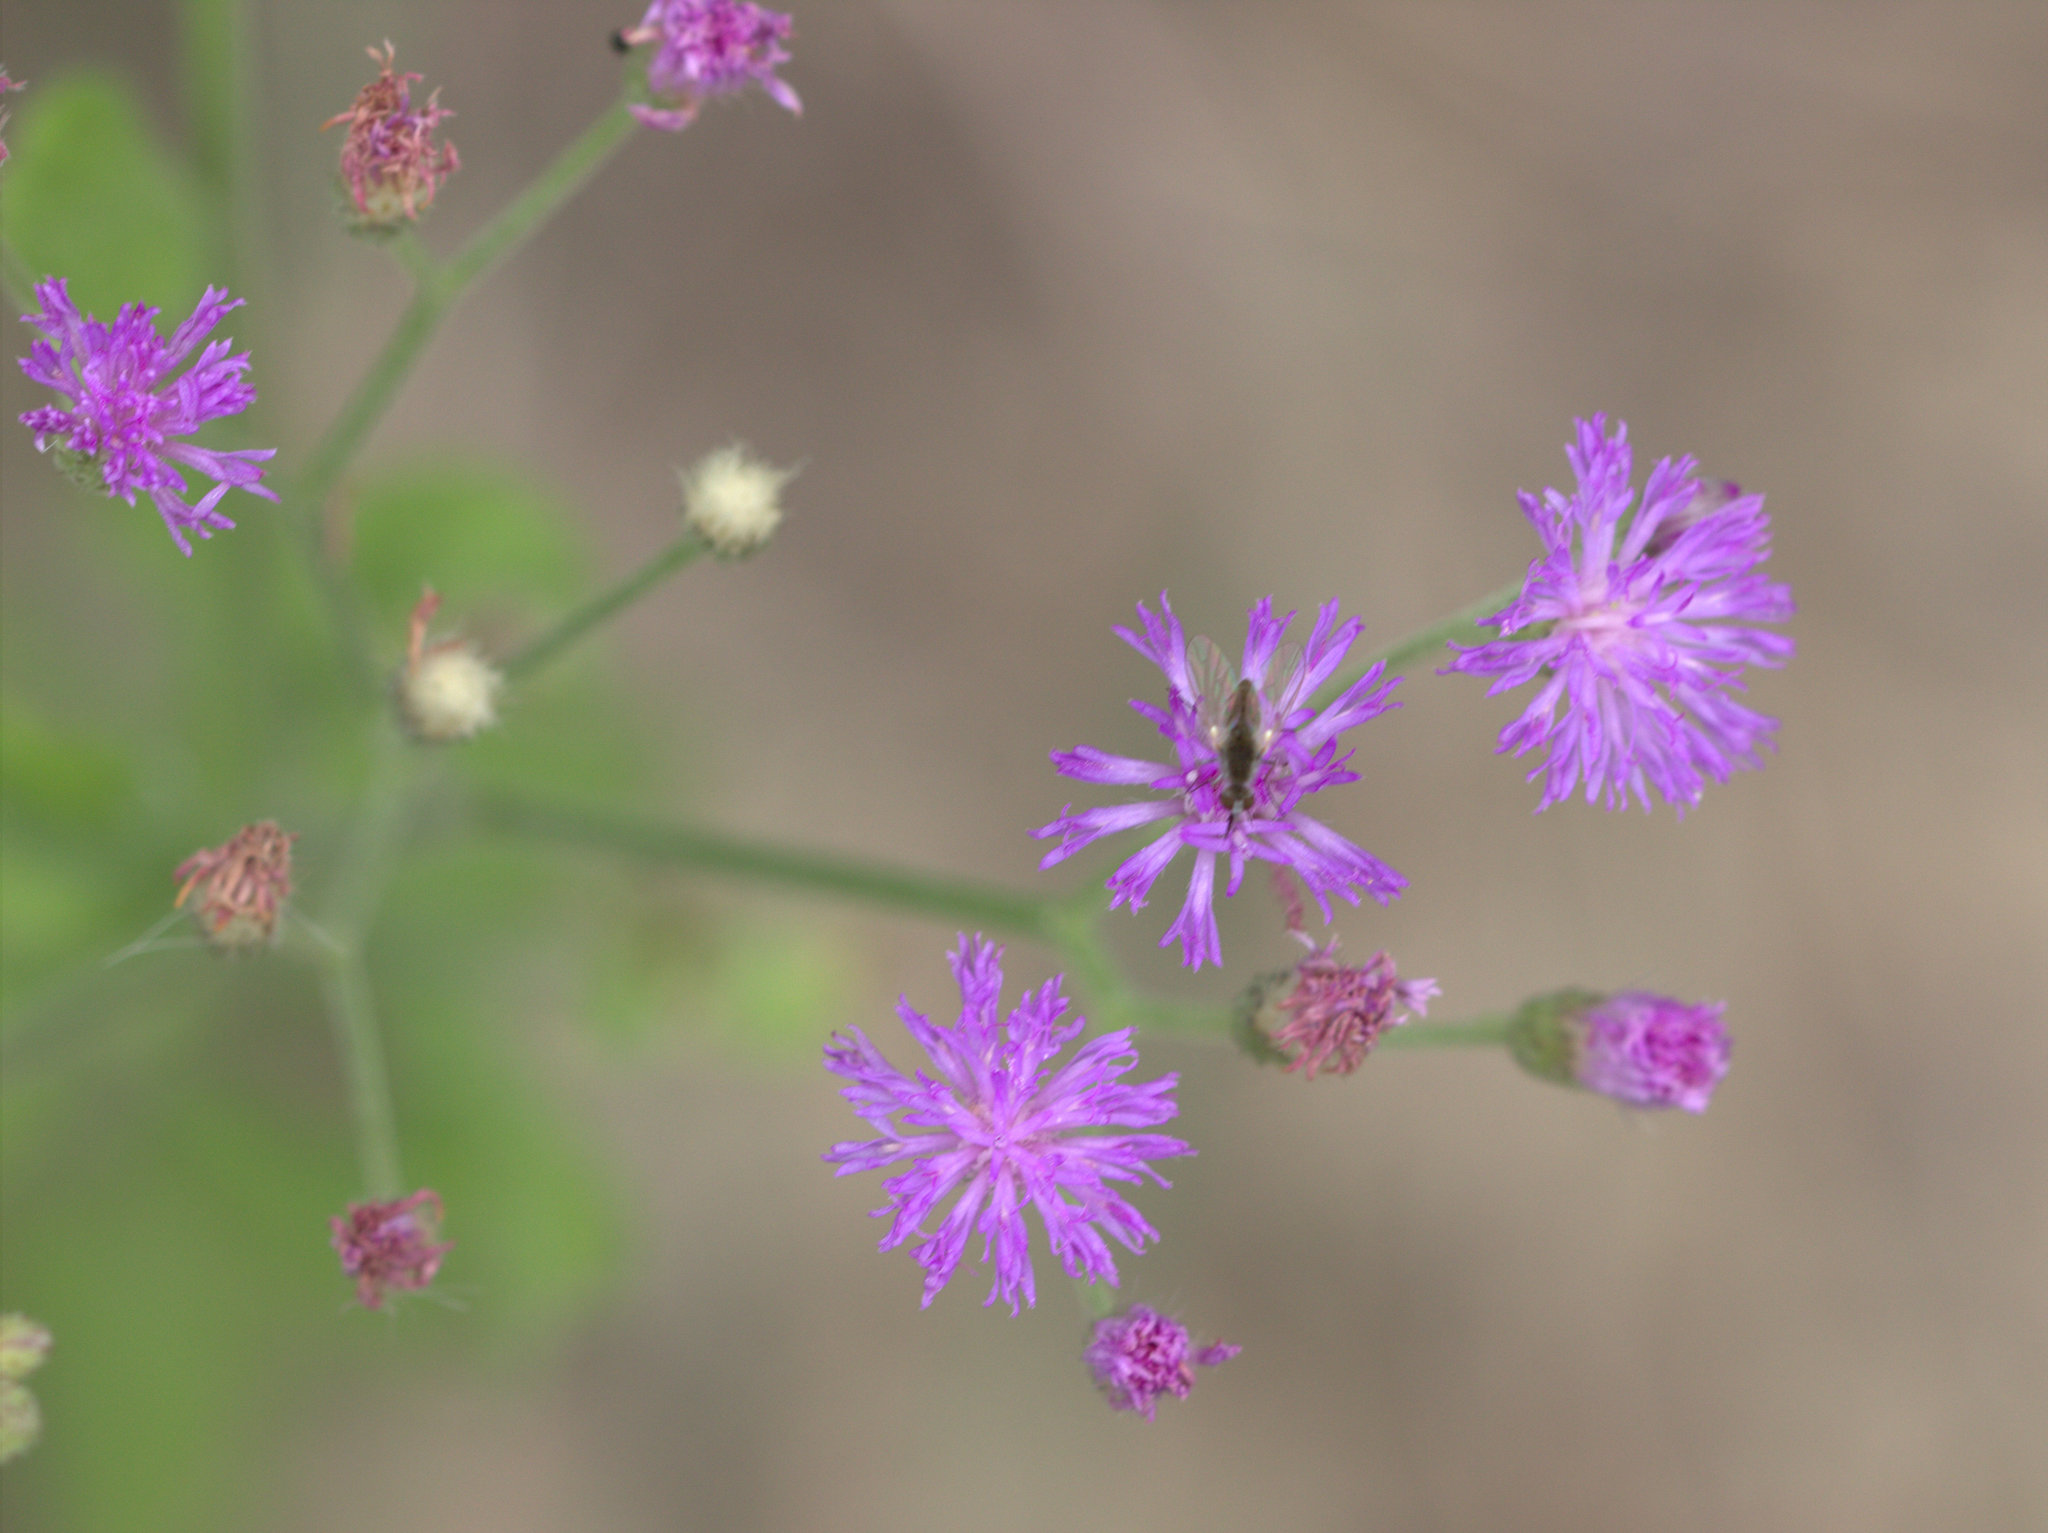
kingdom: Plantae
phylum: Tracheophyta
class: Magnoliopsida
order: Asterales
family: Asteraceae
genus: Cyanthillium
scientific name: Cyanthillium cinereum
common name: Little ironweed
